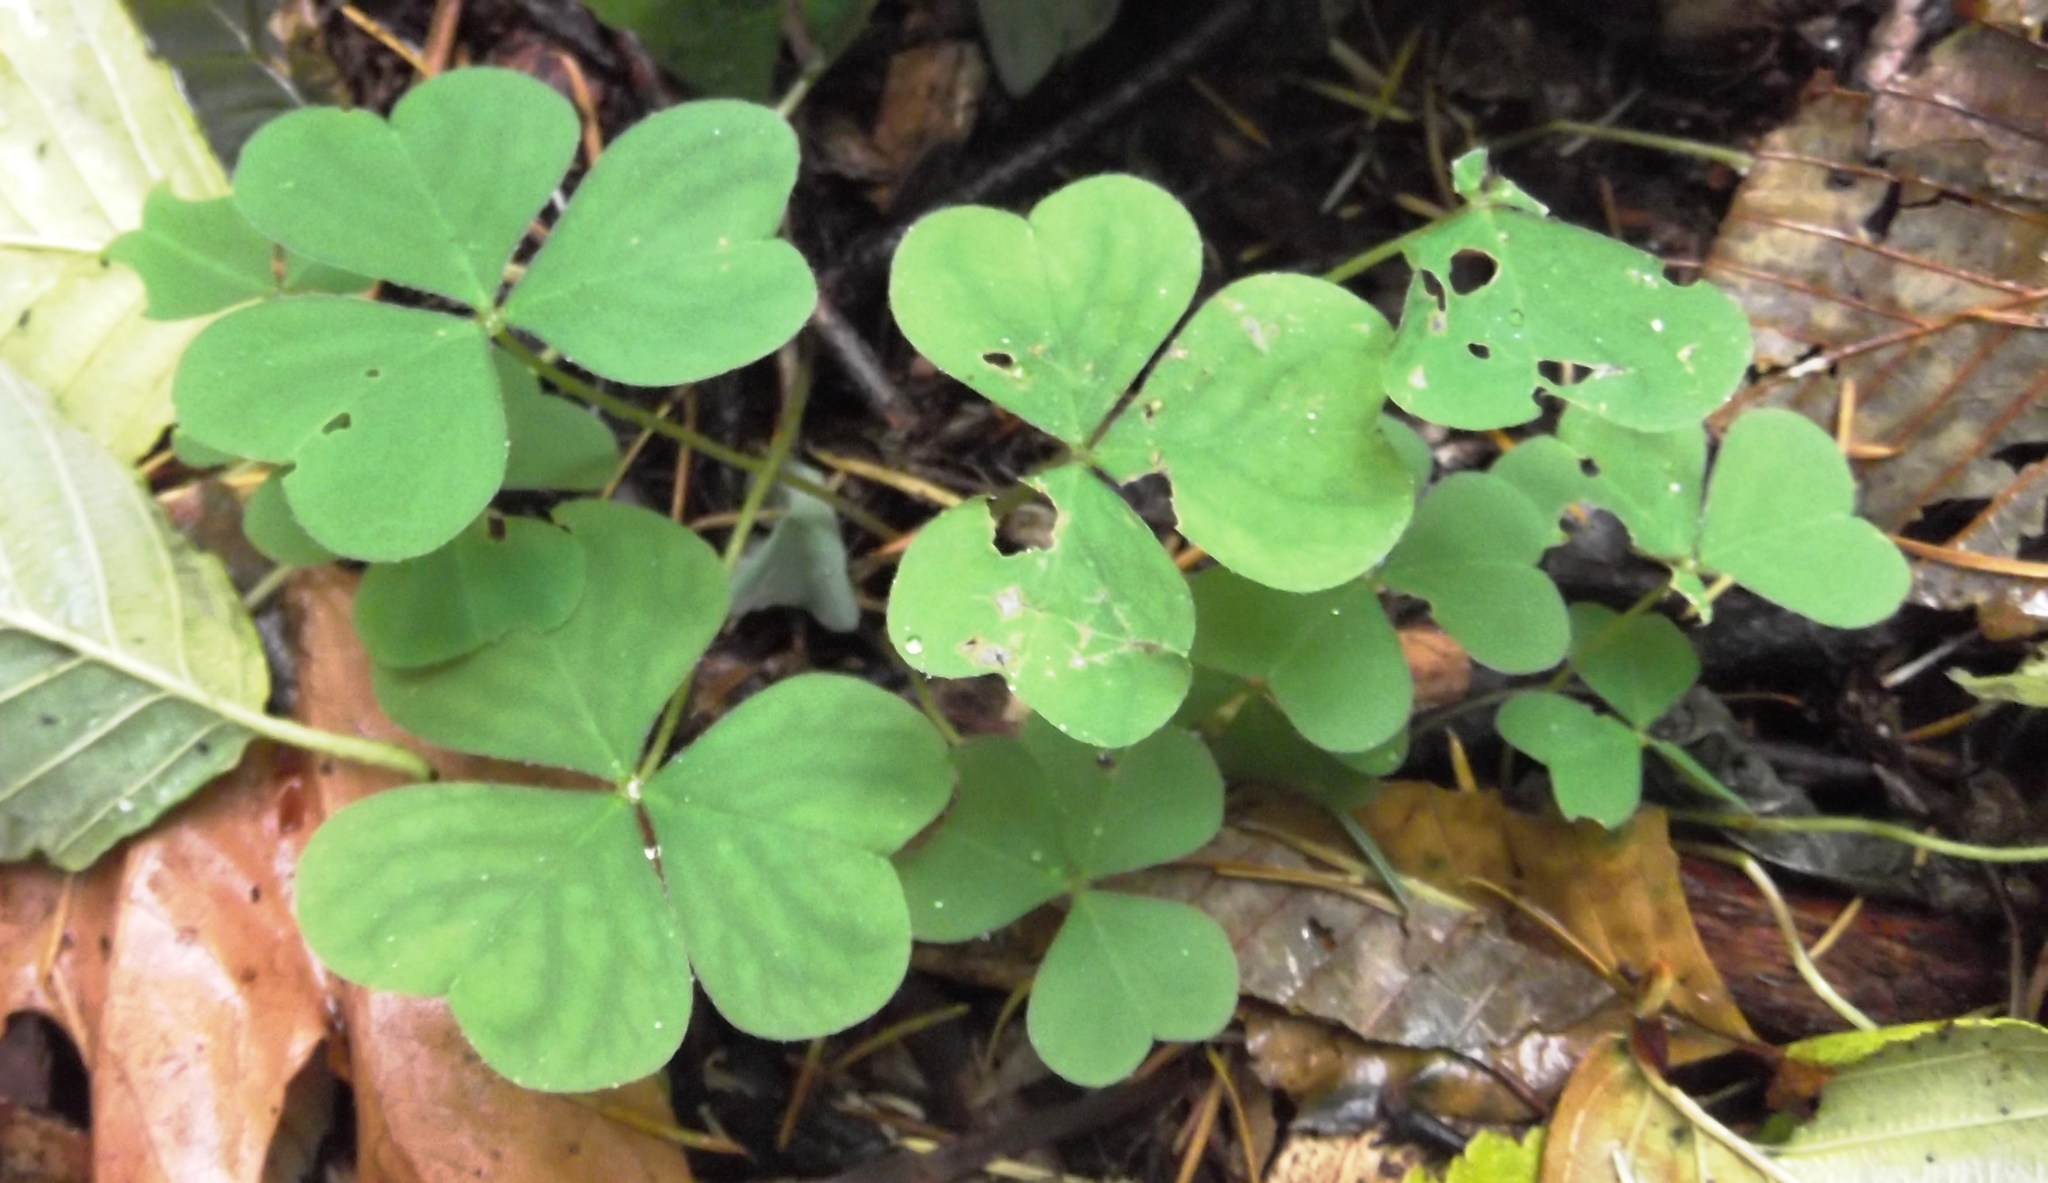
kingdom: Plantae
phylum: Tracheophyta
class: Magnoliopsida
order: Oxalidales
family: Oxalidaceae
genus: Oxalis
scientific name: Oxalis oregana
